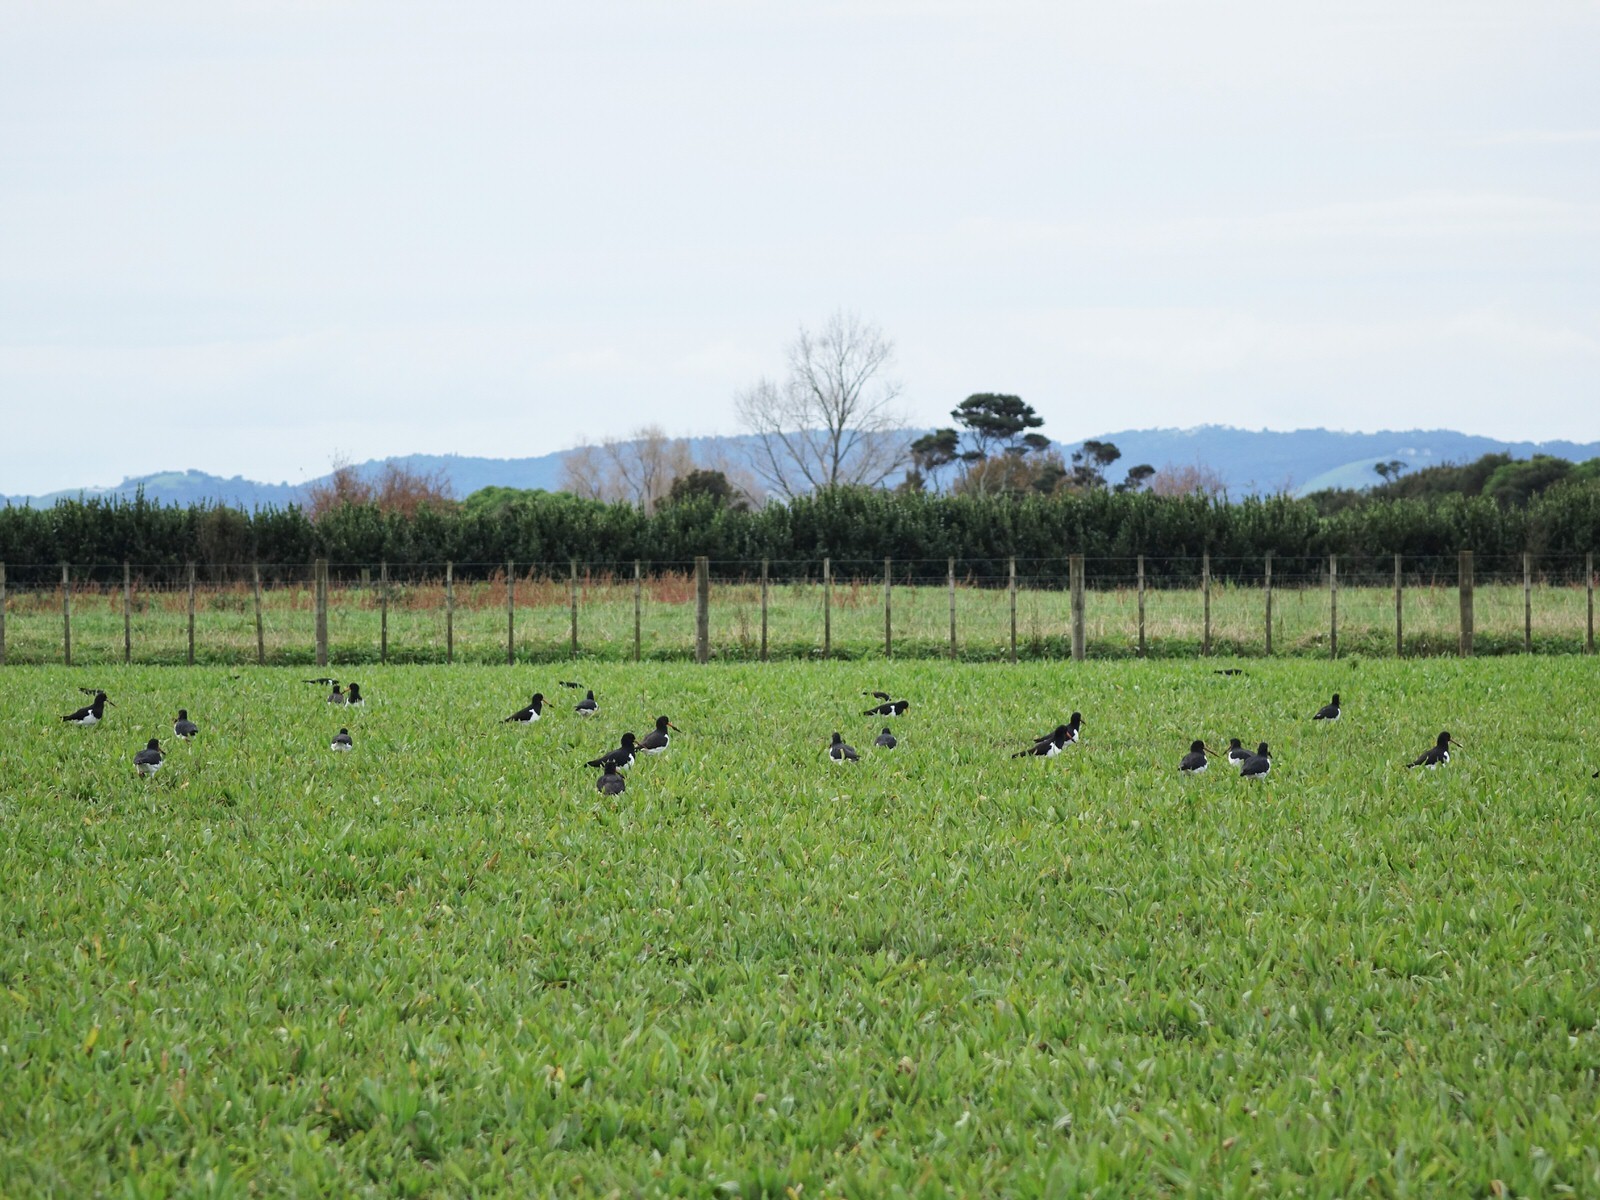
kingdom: Animalia
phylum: Chordata
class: Aves
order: Charadriiformes
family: Haematopodidae
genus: Haematopus
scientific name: Haematopus finschi
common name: South island oystercatcher
